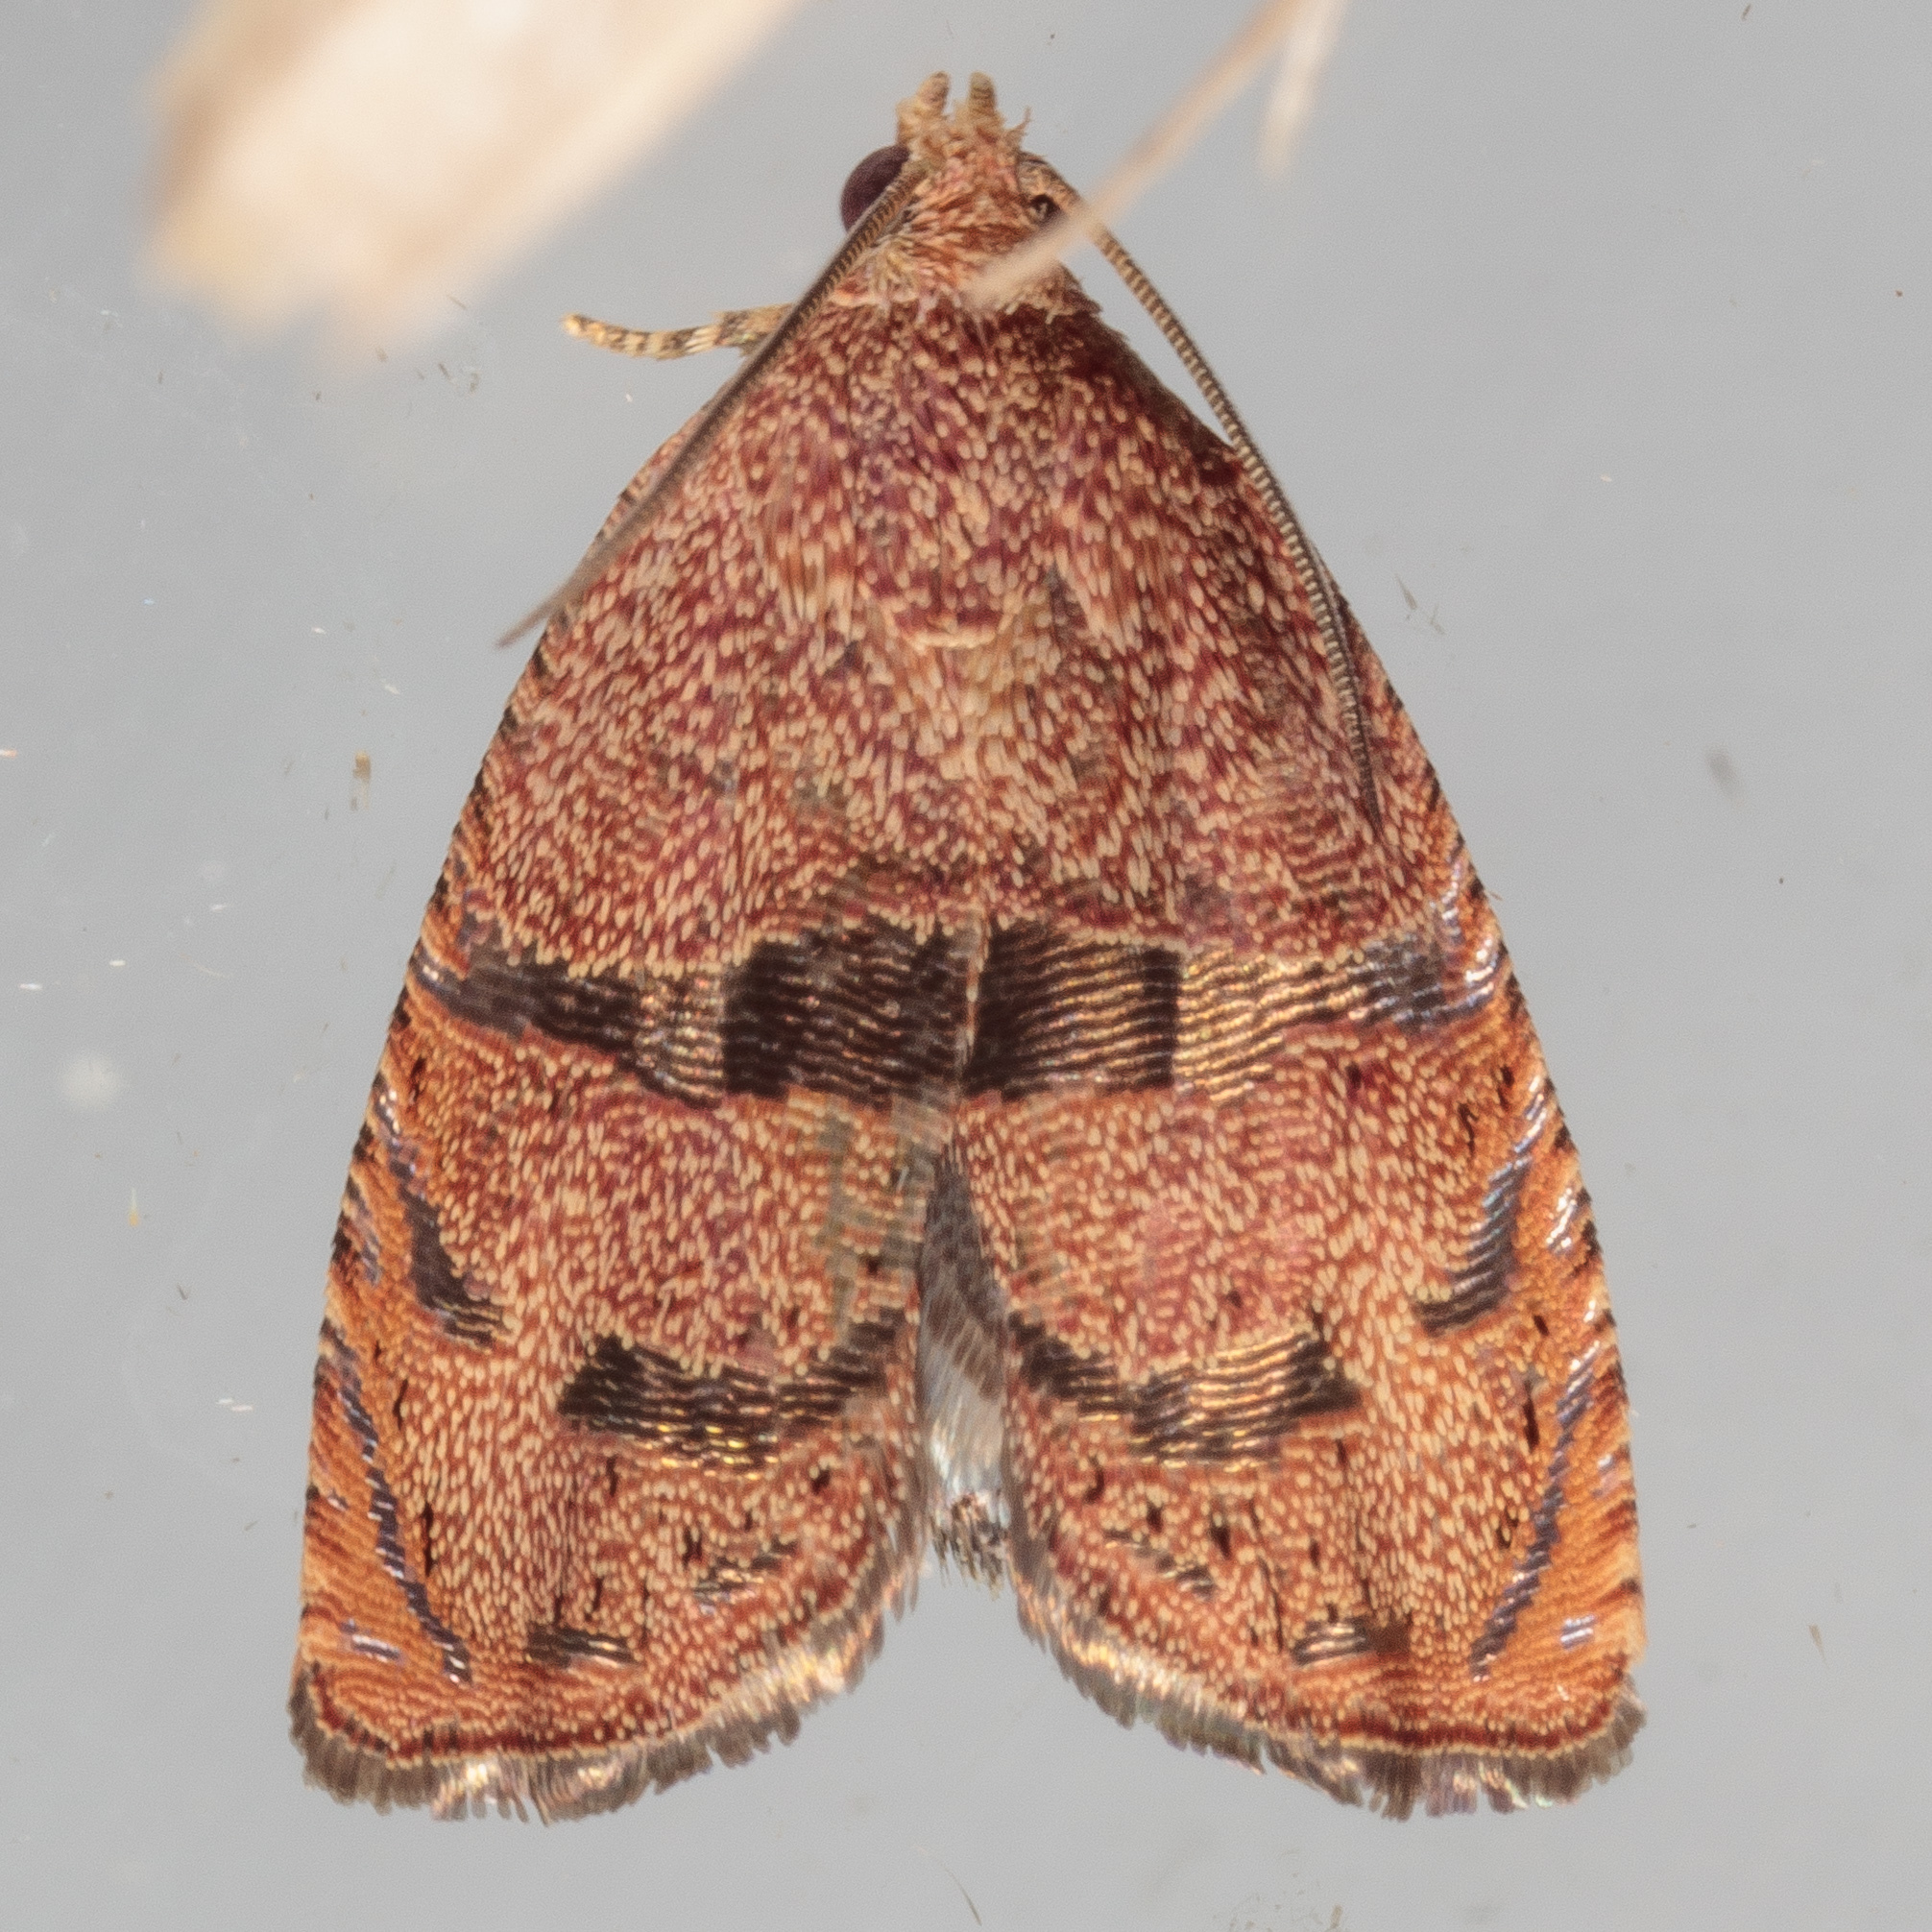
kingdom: Animalia
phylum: Arthropoda
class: Insecta
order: Lepidoptera
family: Tortricidae
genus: Cydia
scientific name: Cydia latiferreana
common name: Filbertworm moth
